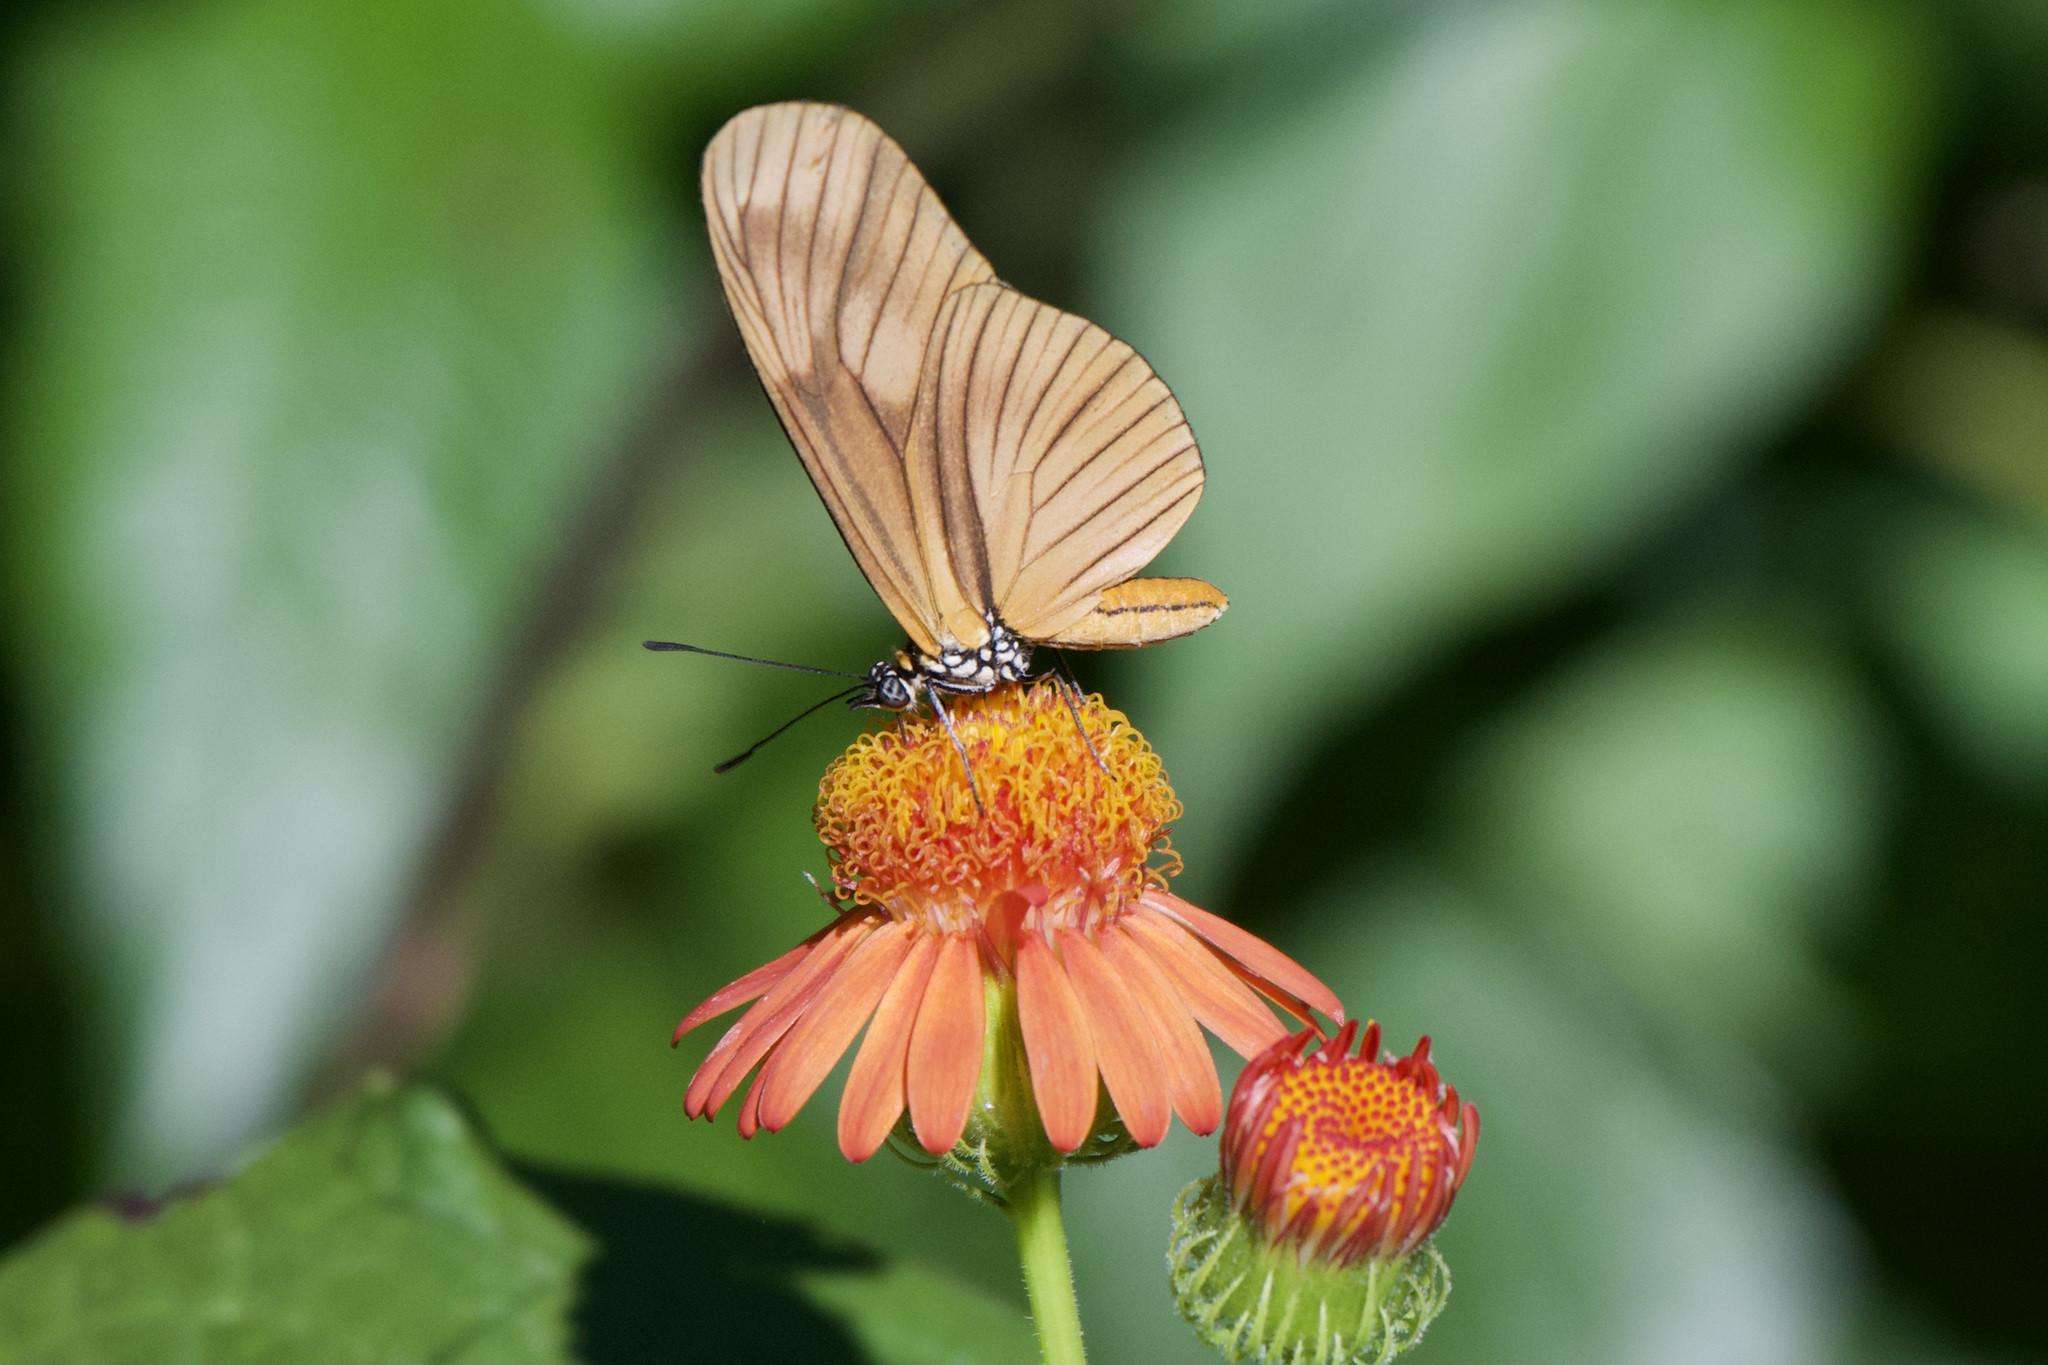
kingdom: Animalia
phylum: Arthropoda
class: Insecta
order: Lepidoptera
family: Nymphalidae
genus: Heliconius
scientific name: Heliconius aliphera
